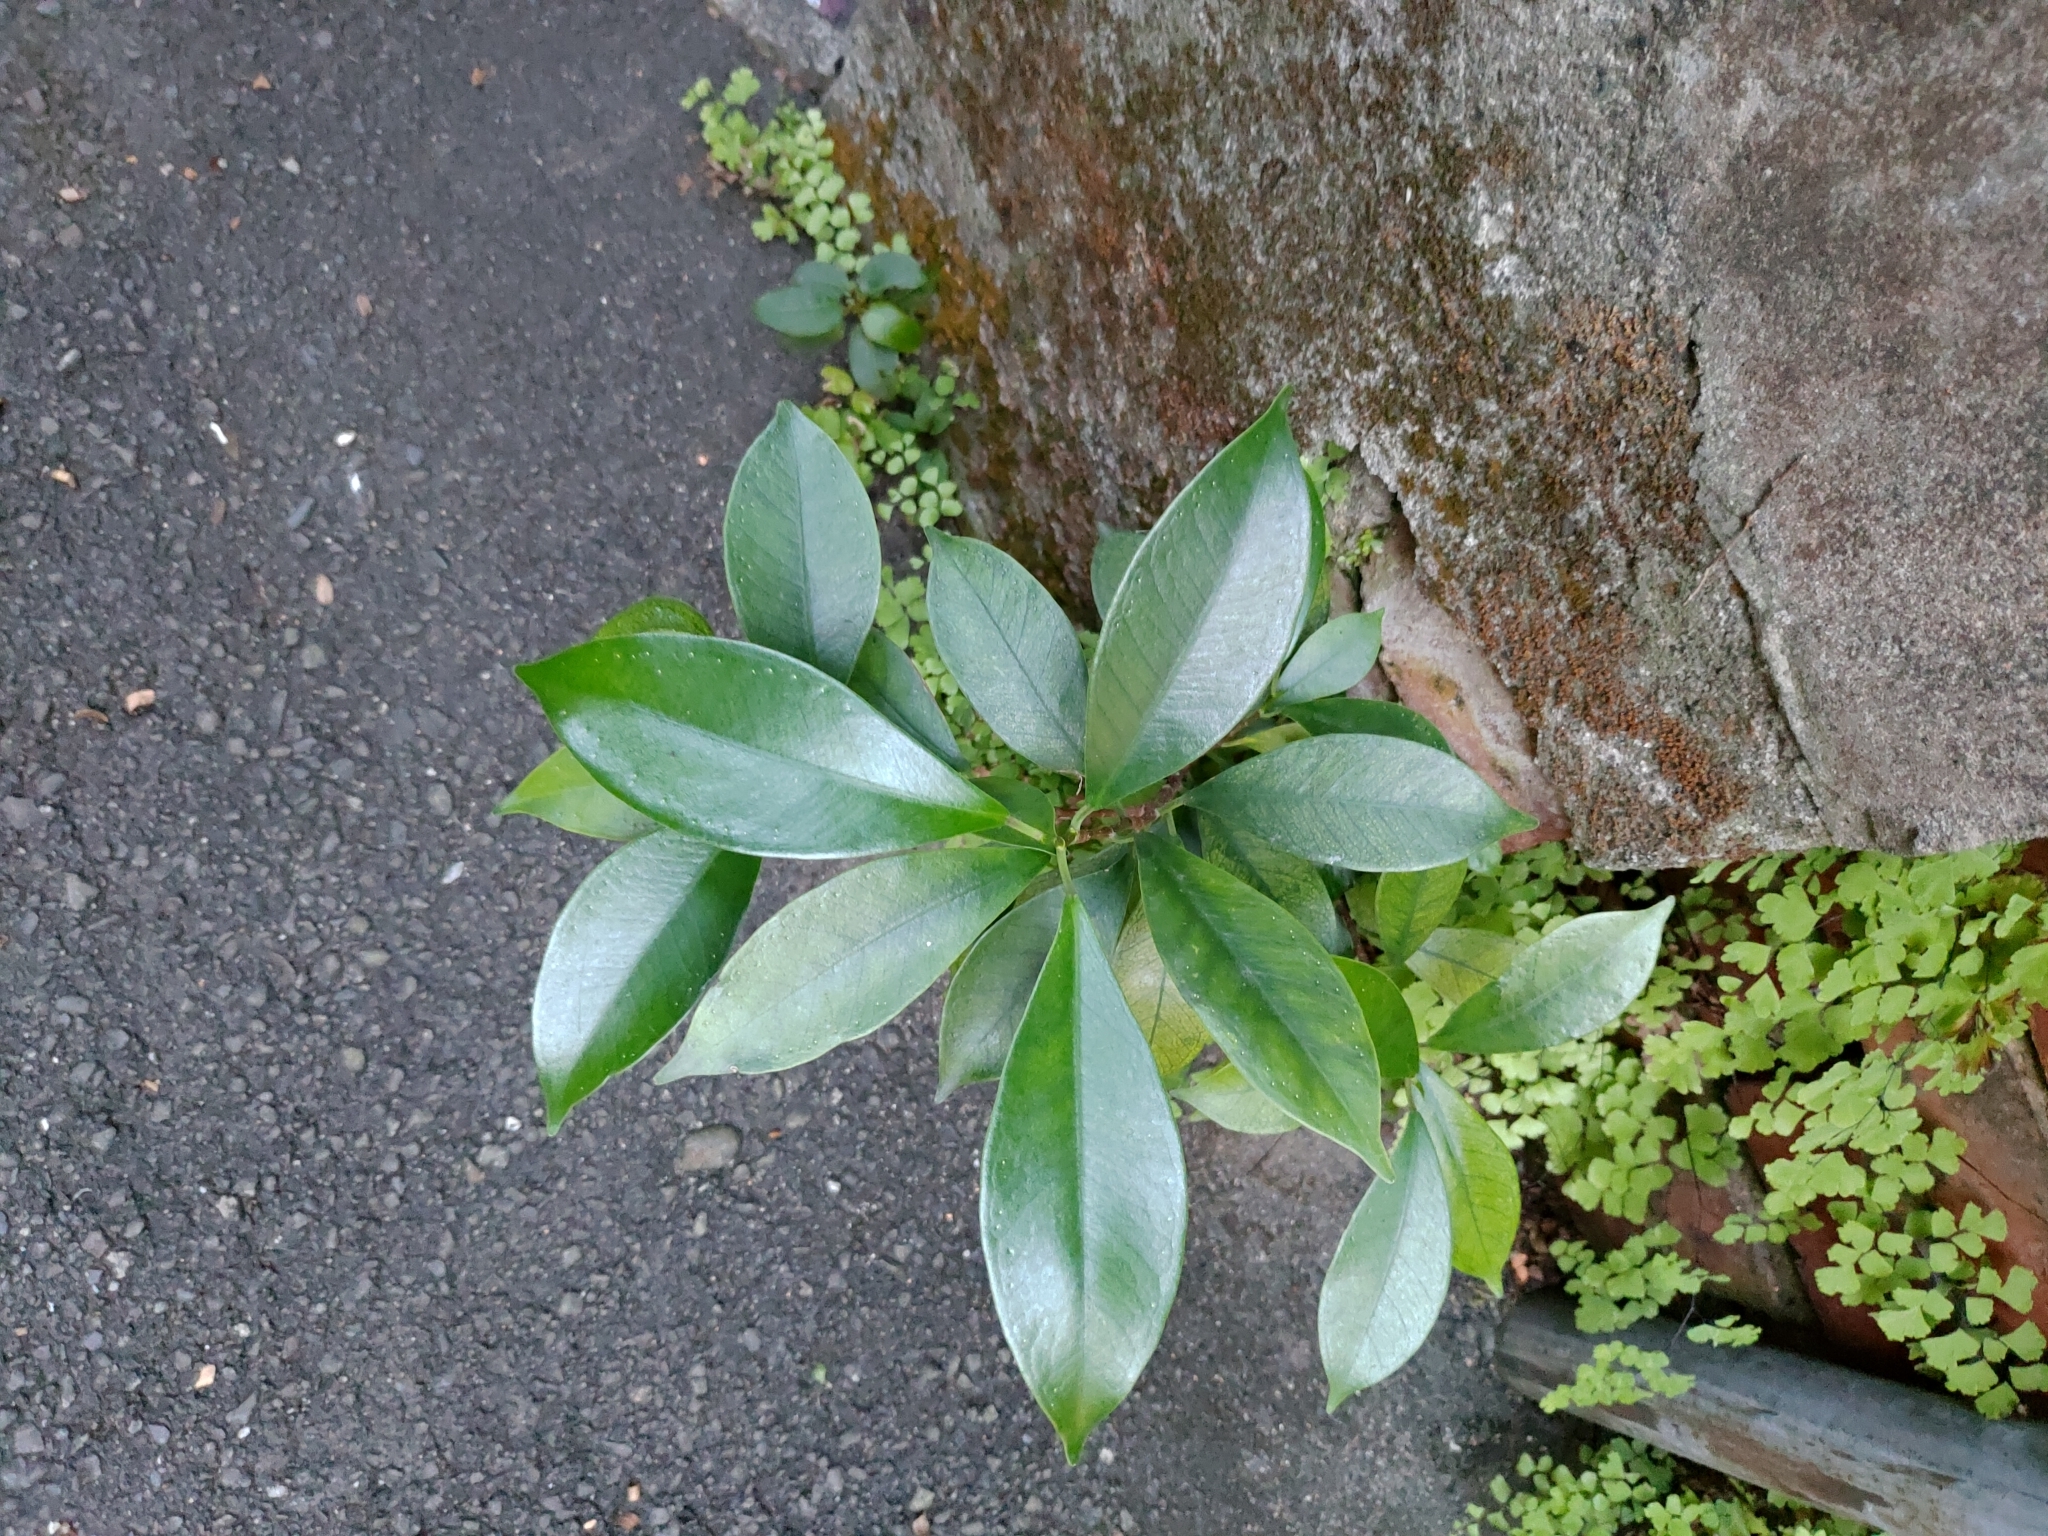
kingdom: Plantae
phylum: Tracheophyta
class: Magnoliopsida
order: Rosales
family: Moraceae
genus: Ficus
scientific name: Ficus microcarpa
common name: Chinese banyan
